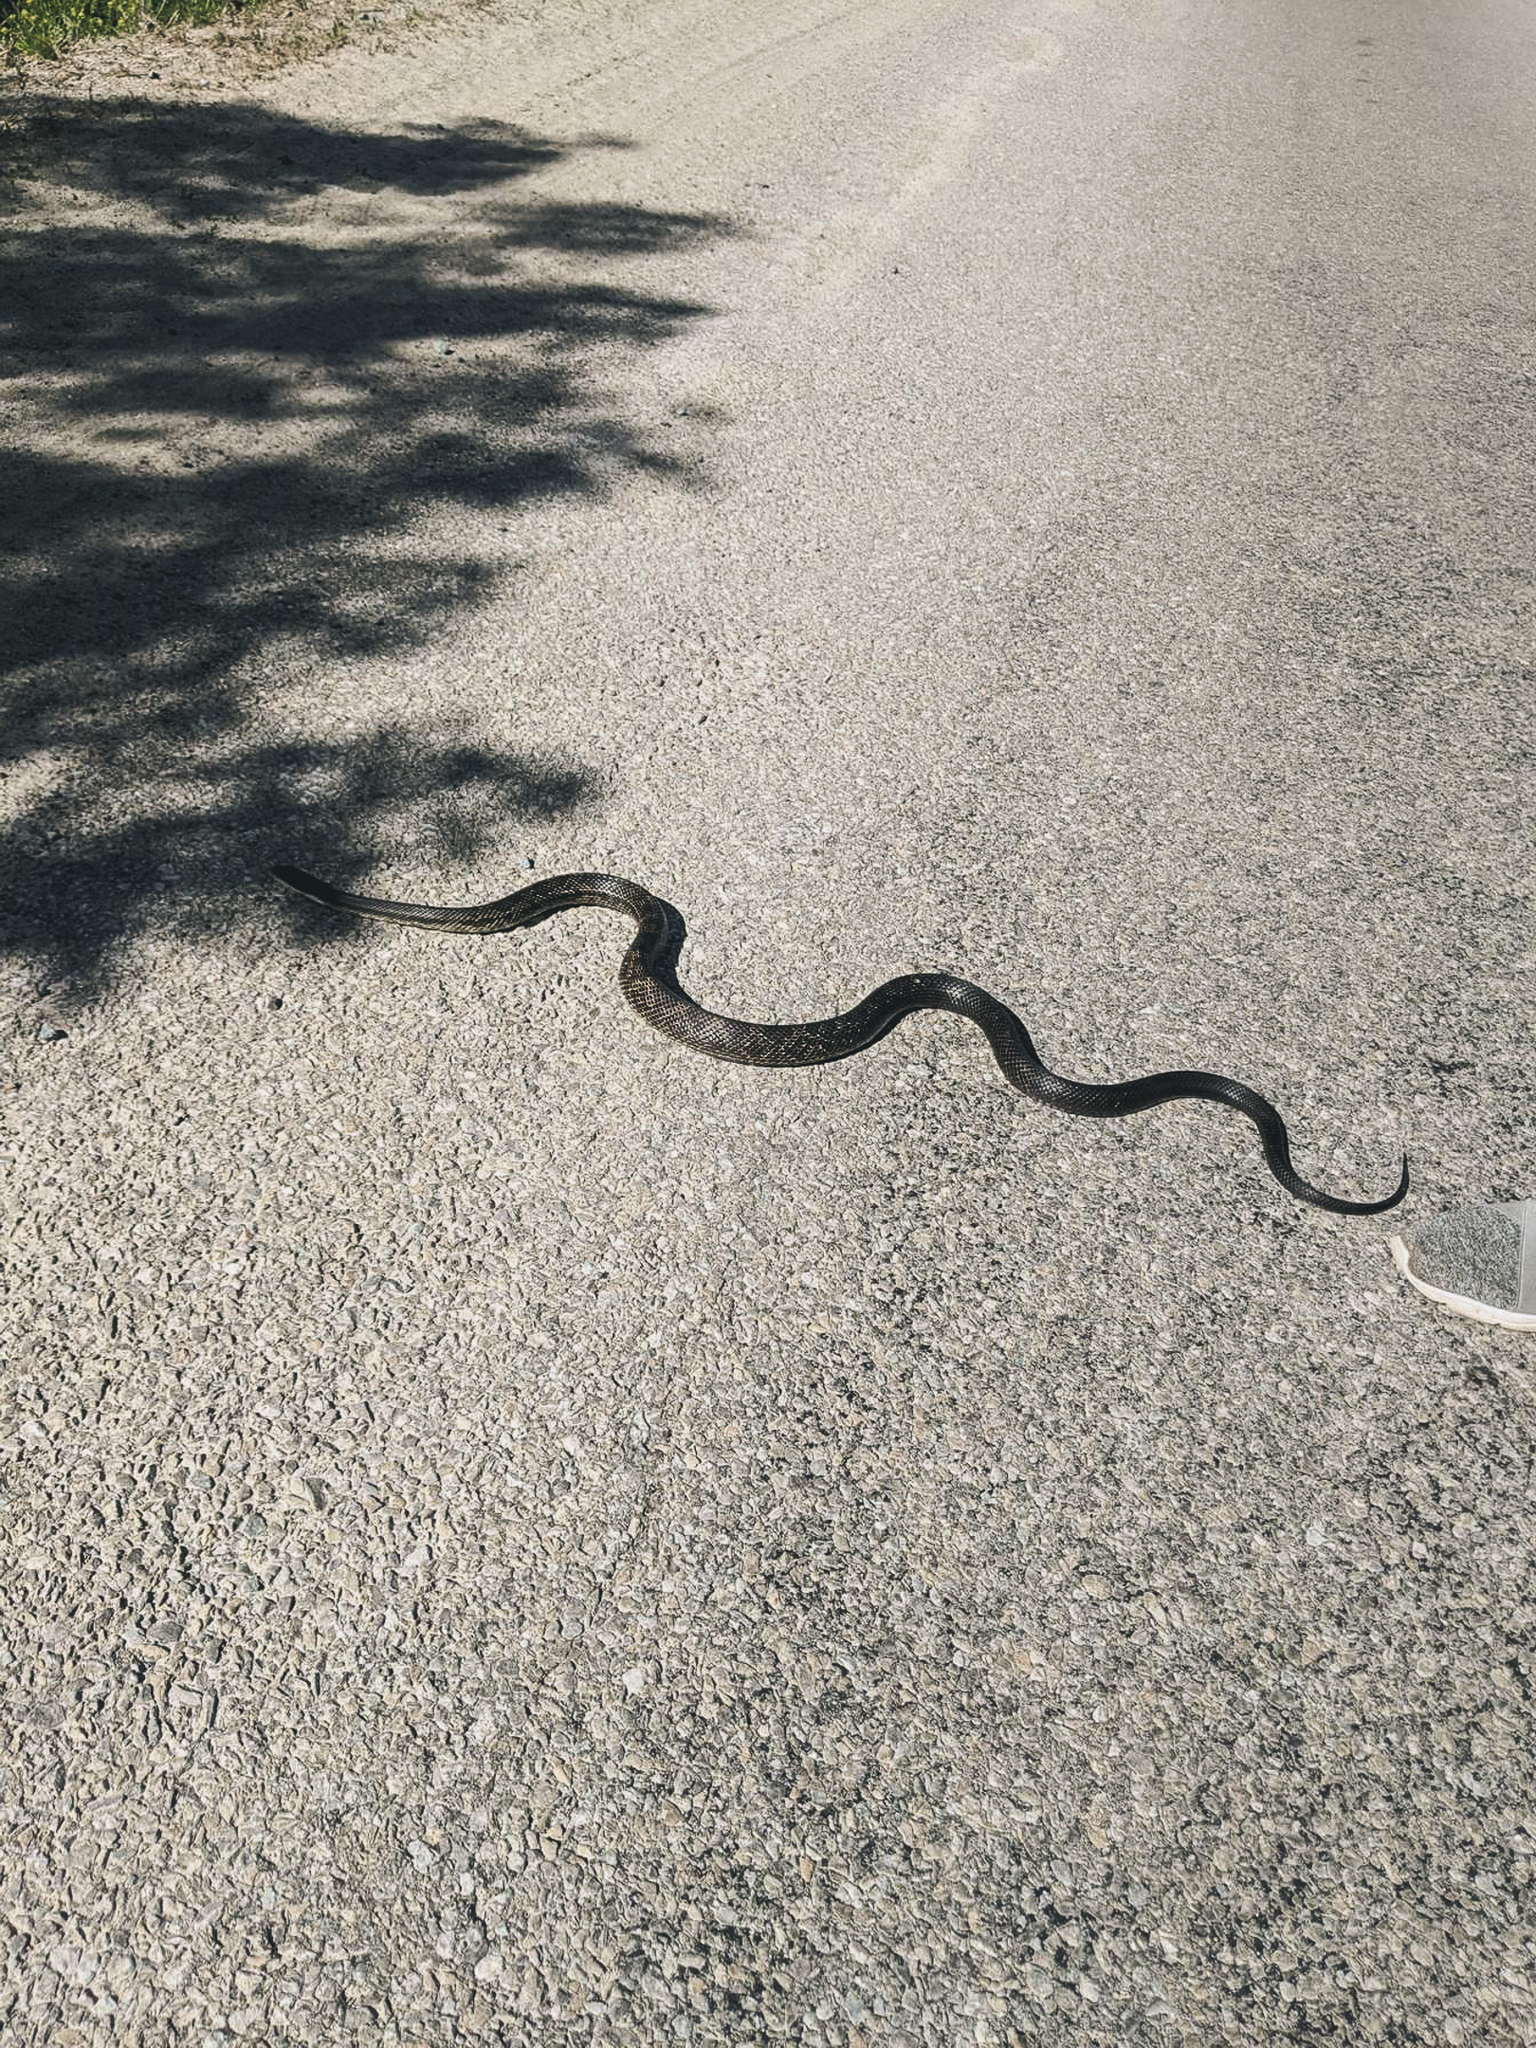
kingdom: Animalia
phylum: Chordata
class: Squamata
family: Colubridae
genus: Pantherophis
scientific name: Pantherophis spiloides
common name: Gray rat snake
